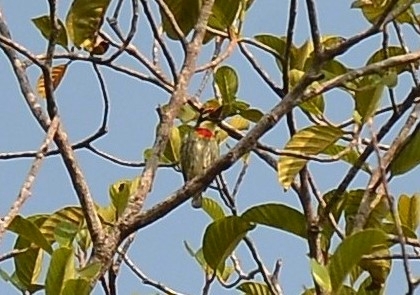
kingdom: Animalia
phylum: Chordata
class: Aves
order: Piciformes
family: Megalaimidae
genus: Psilopogon
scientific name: Psilopogon haemacephalus
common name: Coppersmith barbet
